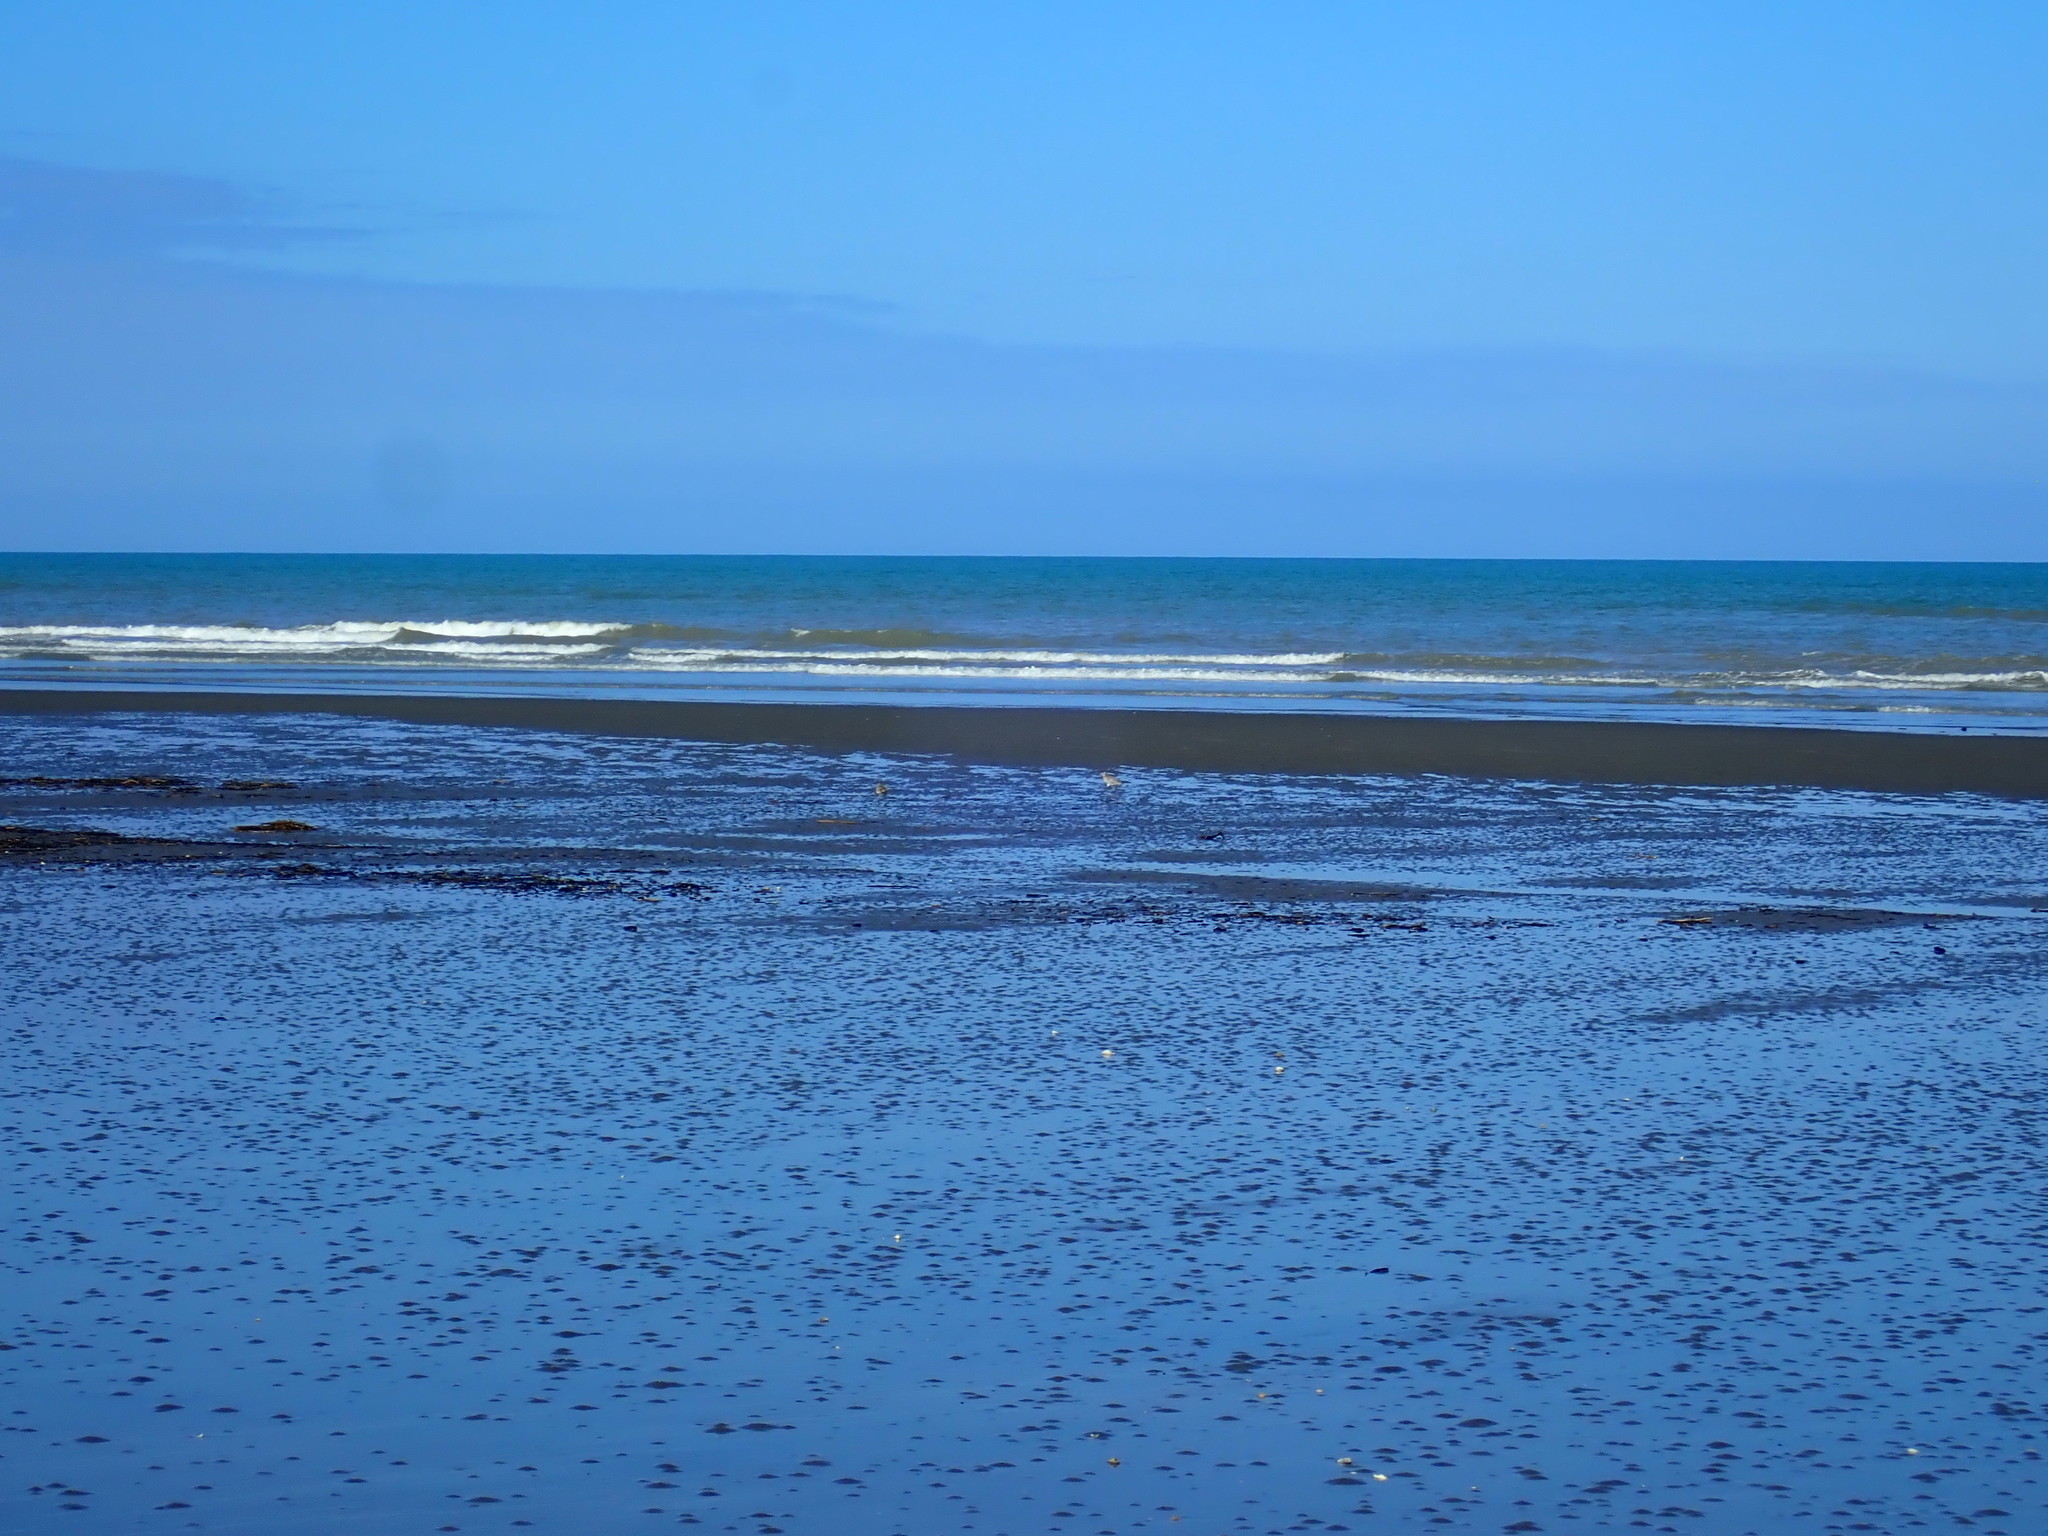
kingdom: Animalia
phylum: Chordata
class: Aves
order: Charadriiformes
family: Scolopacidae
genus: Limosa
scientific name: Limosa lapponica
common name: Bar-tailed godwit
